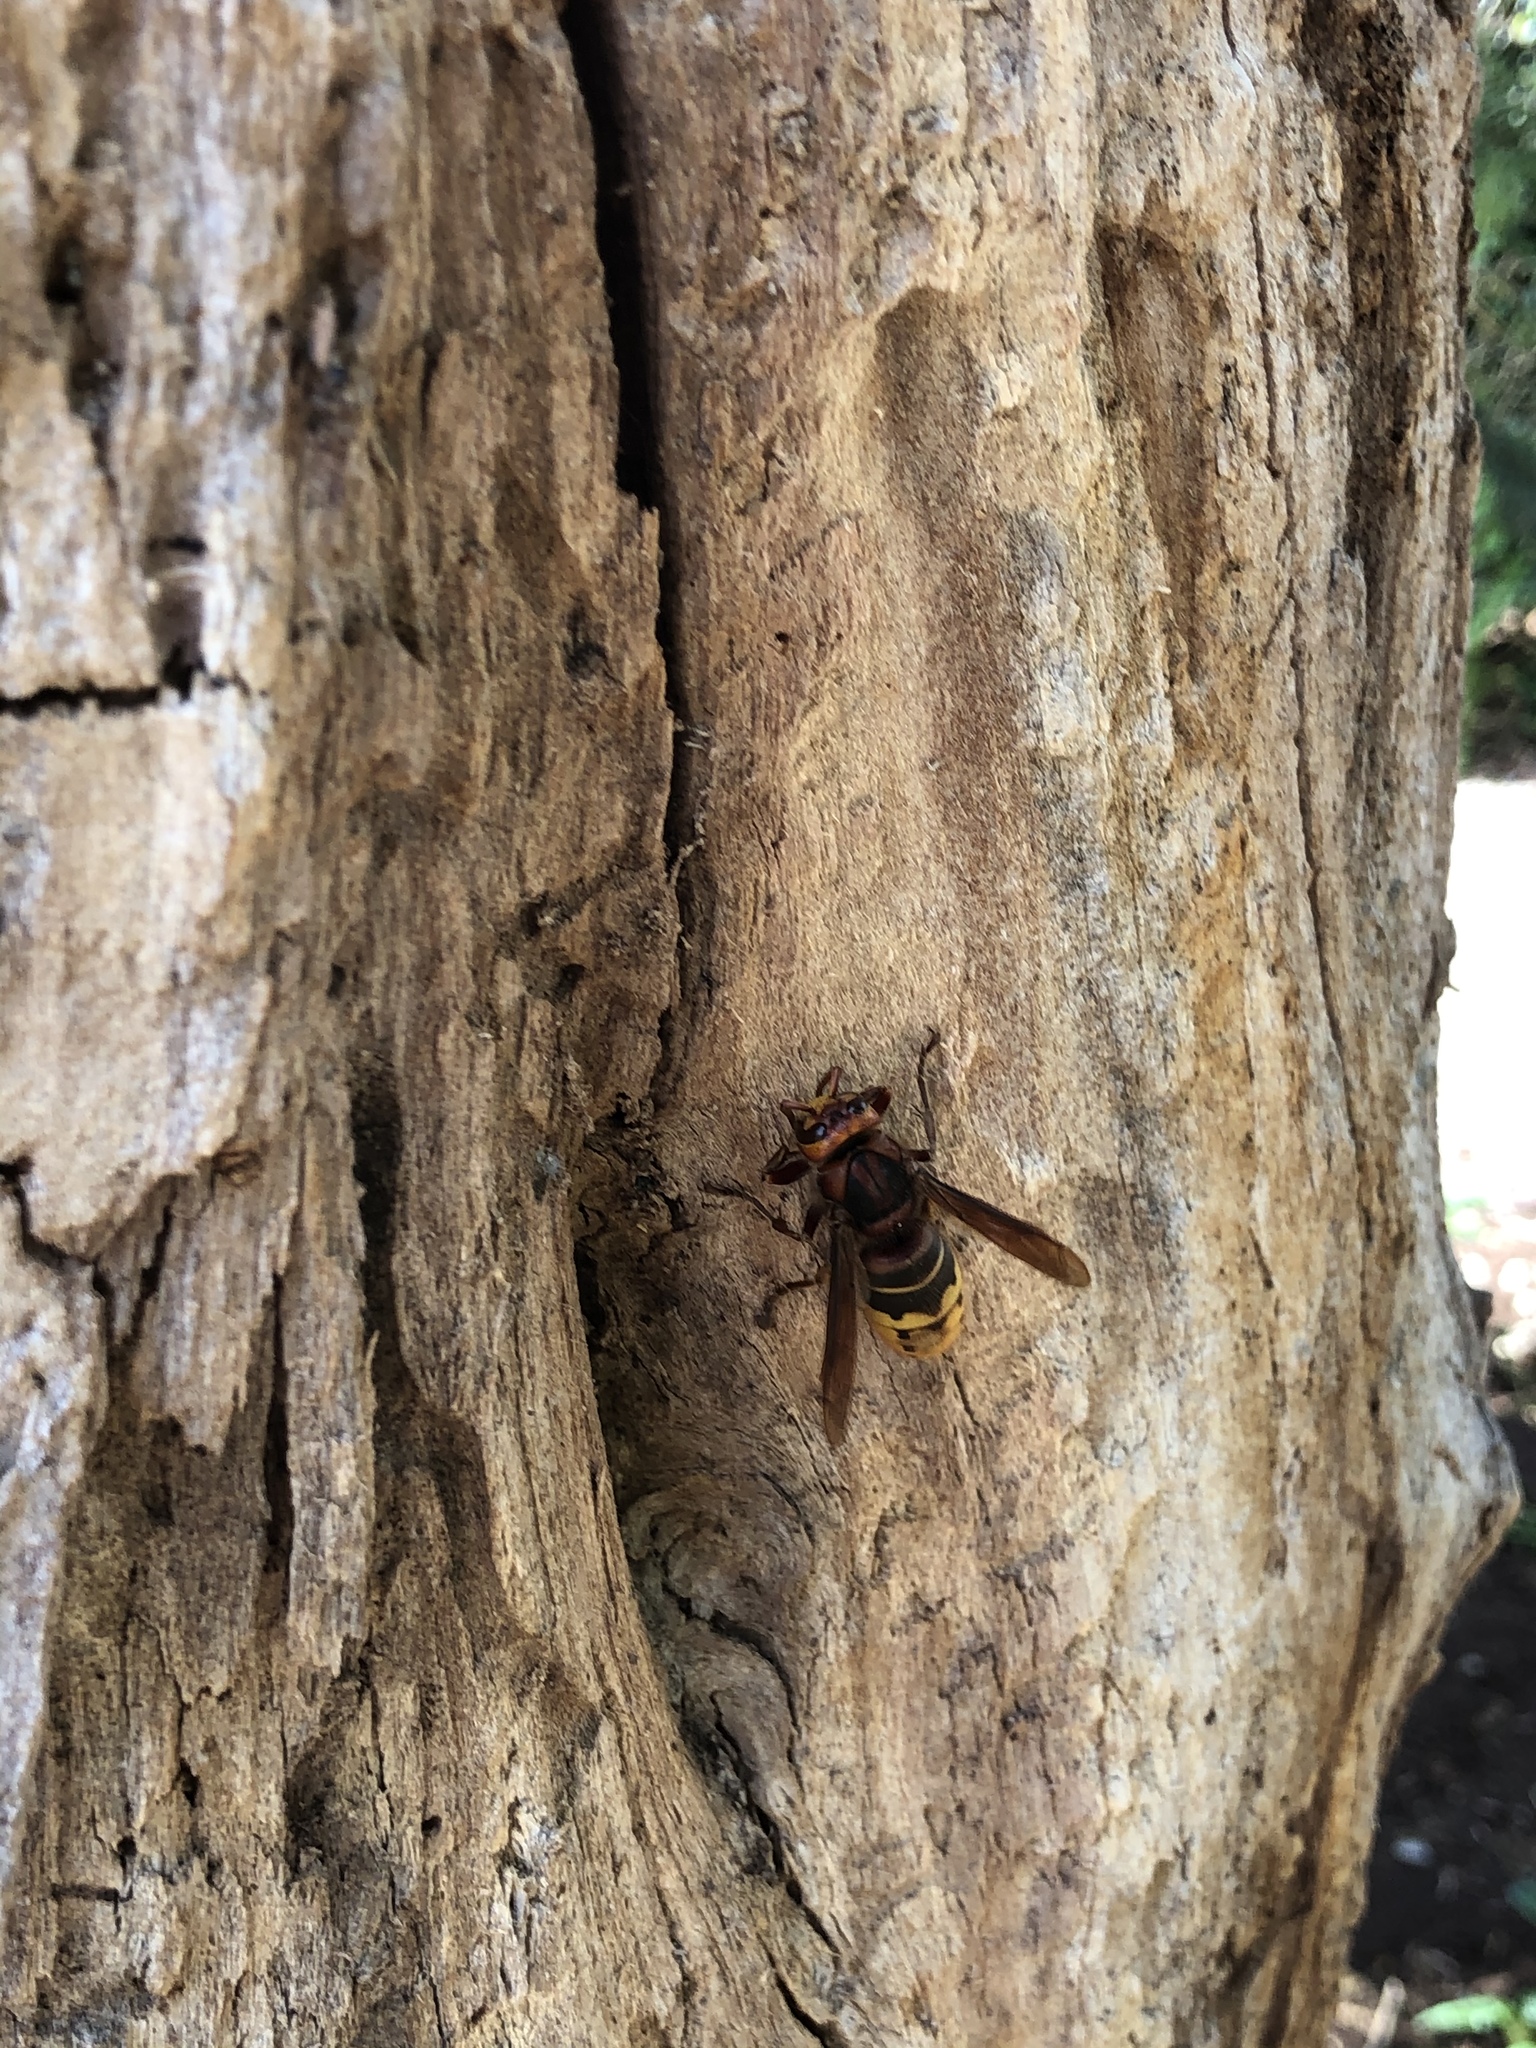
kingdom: Animalia
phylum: Arthropoda
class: Insecta
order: Hymenoptera
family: Vespidae
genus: Vespa
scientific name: Vespa crabro
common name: Hornet
